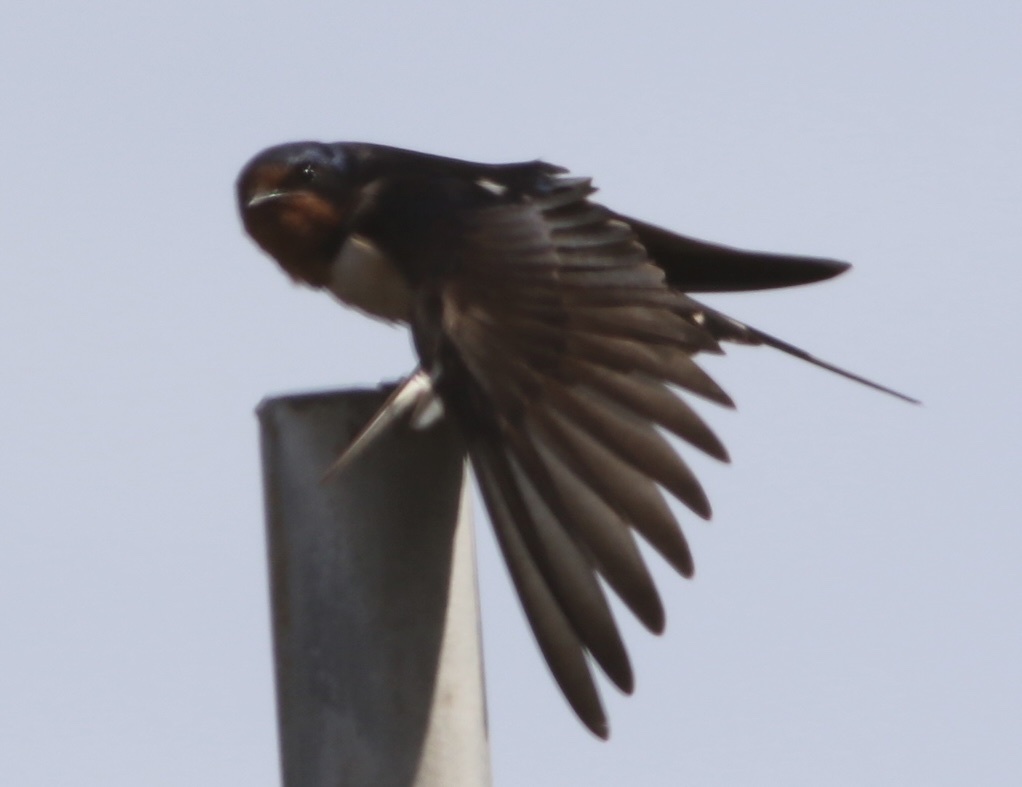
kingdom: Animalia
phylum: Chordata
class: Aves
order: Passeriformes
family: Hirundinidae
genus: Hirundo
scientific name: Hirundo rustica
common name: Barn swallow
